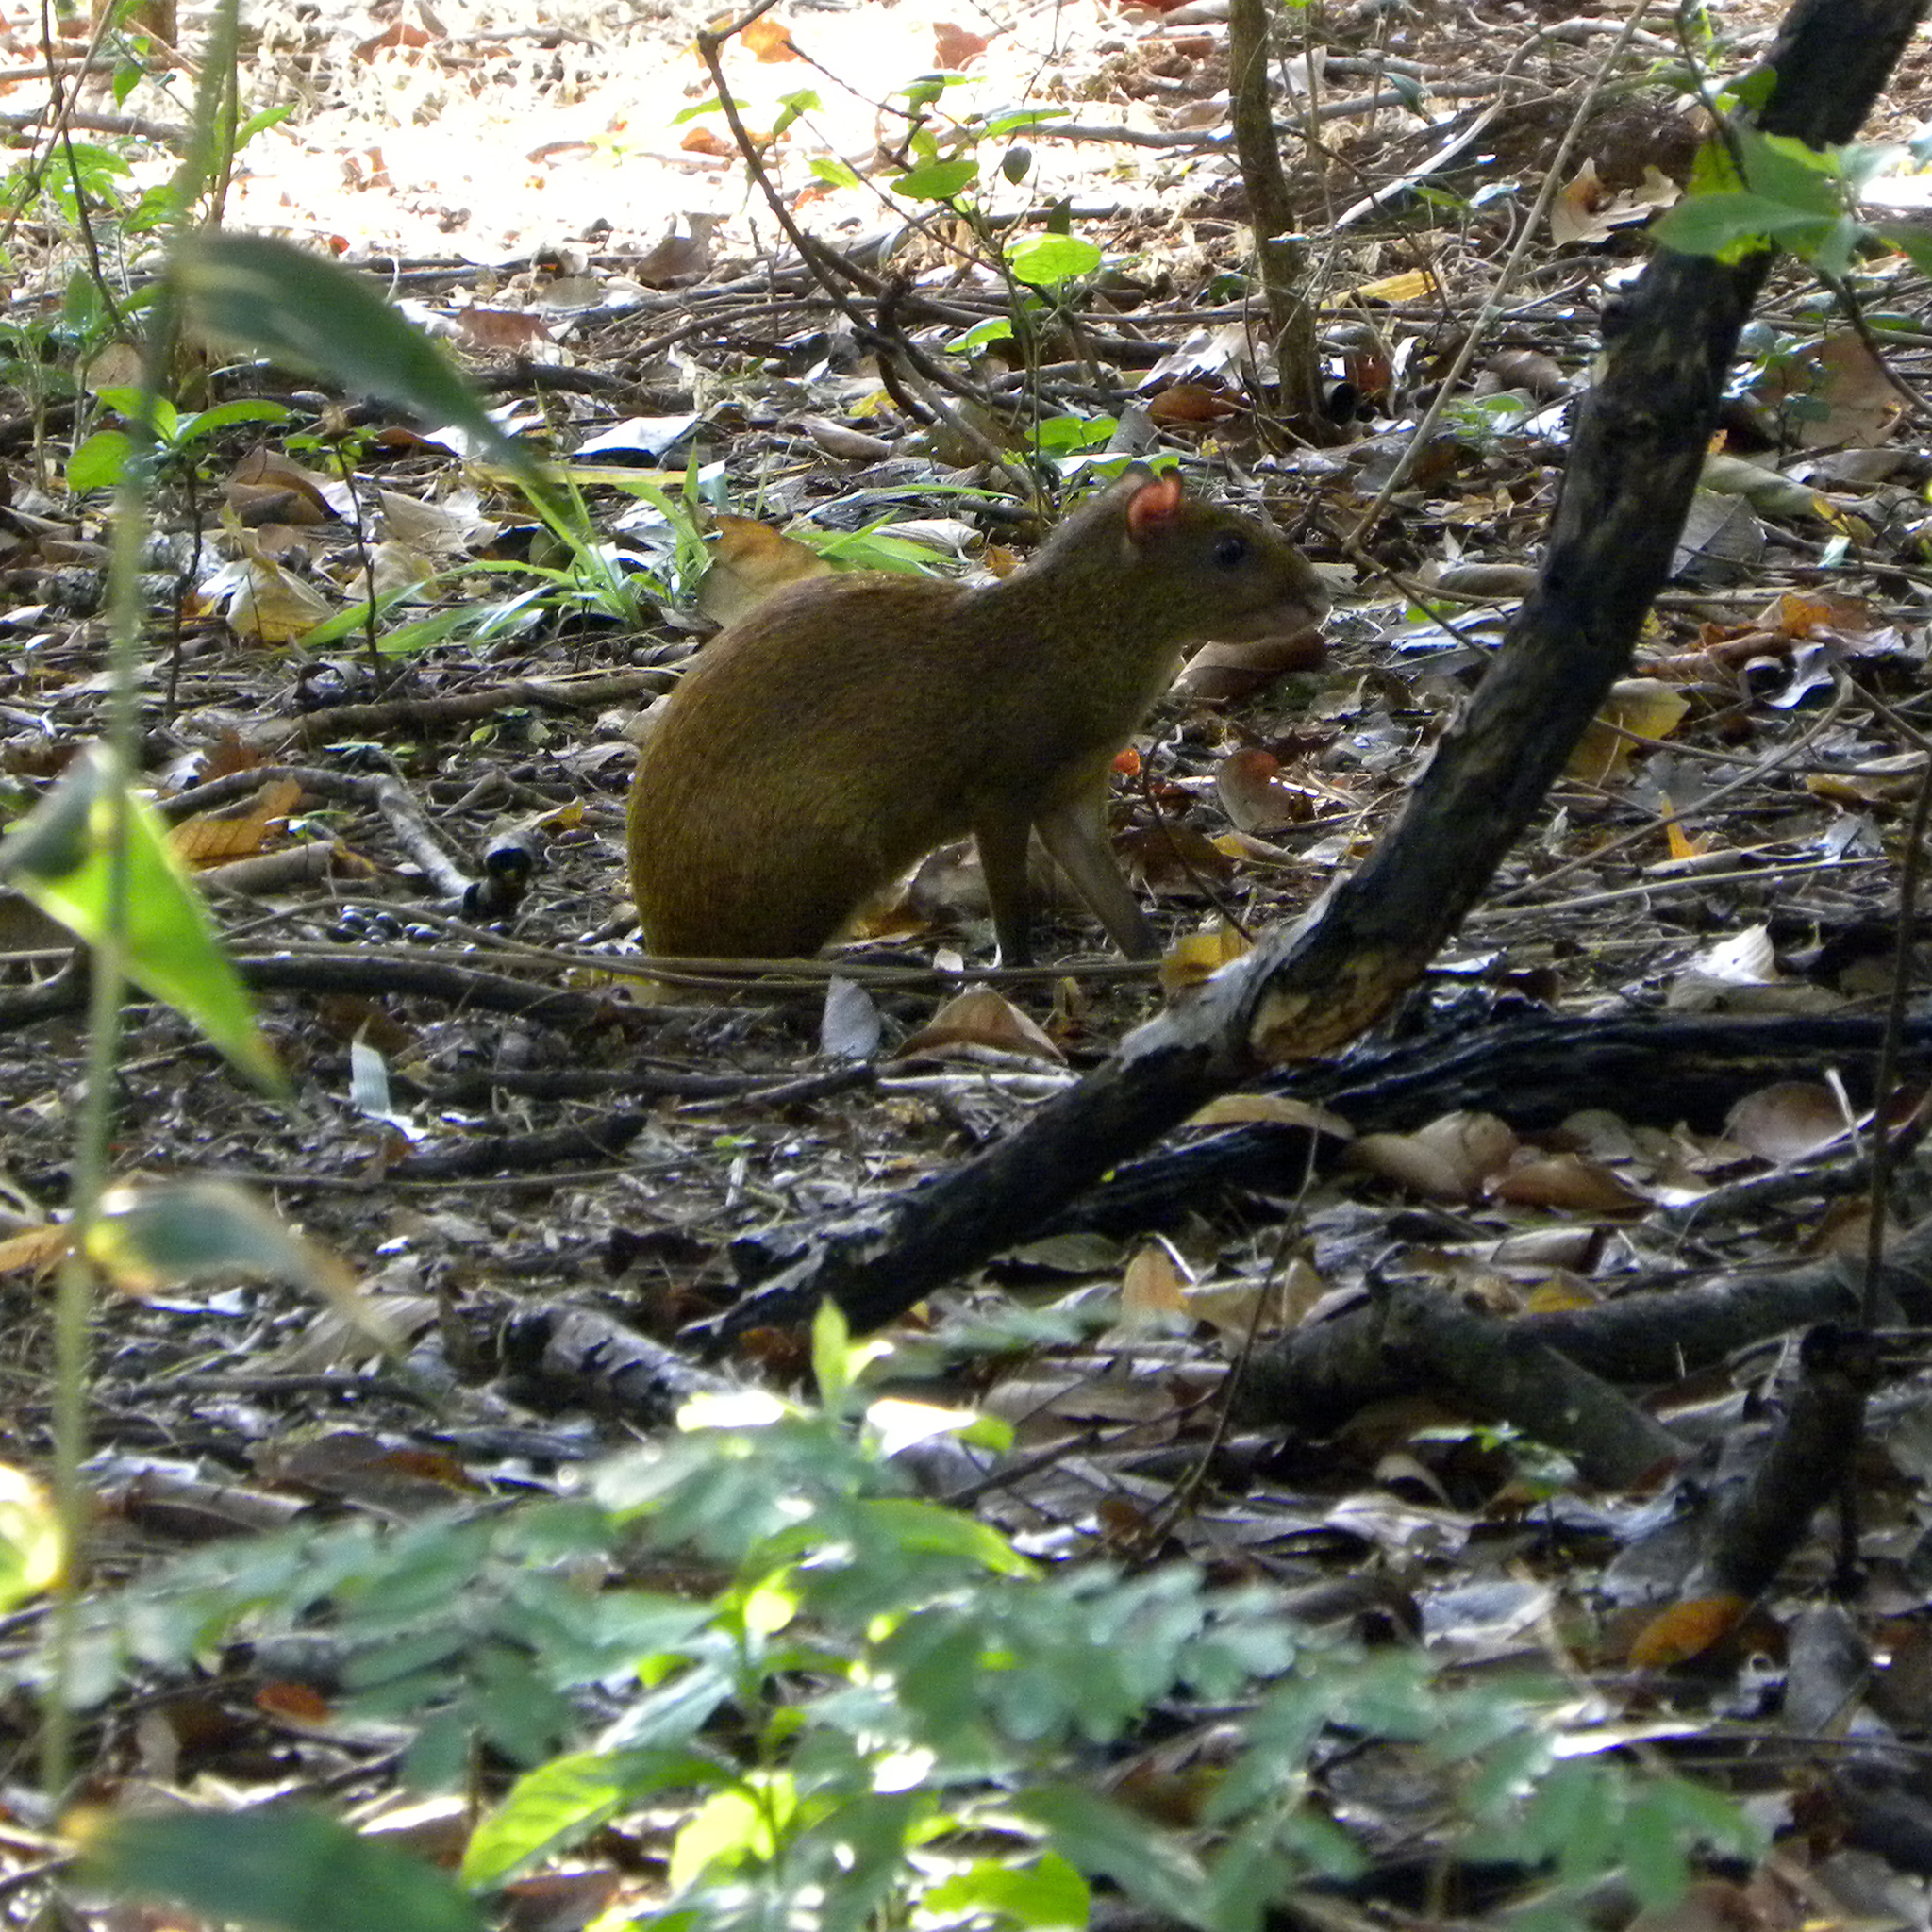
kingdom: Animalia
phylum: Chordata
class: Mammalia
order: Rodentia
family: Dasyproctidae
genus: Dasyprocta
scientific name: Dasyprocta punctata
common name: Central american agouti
